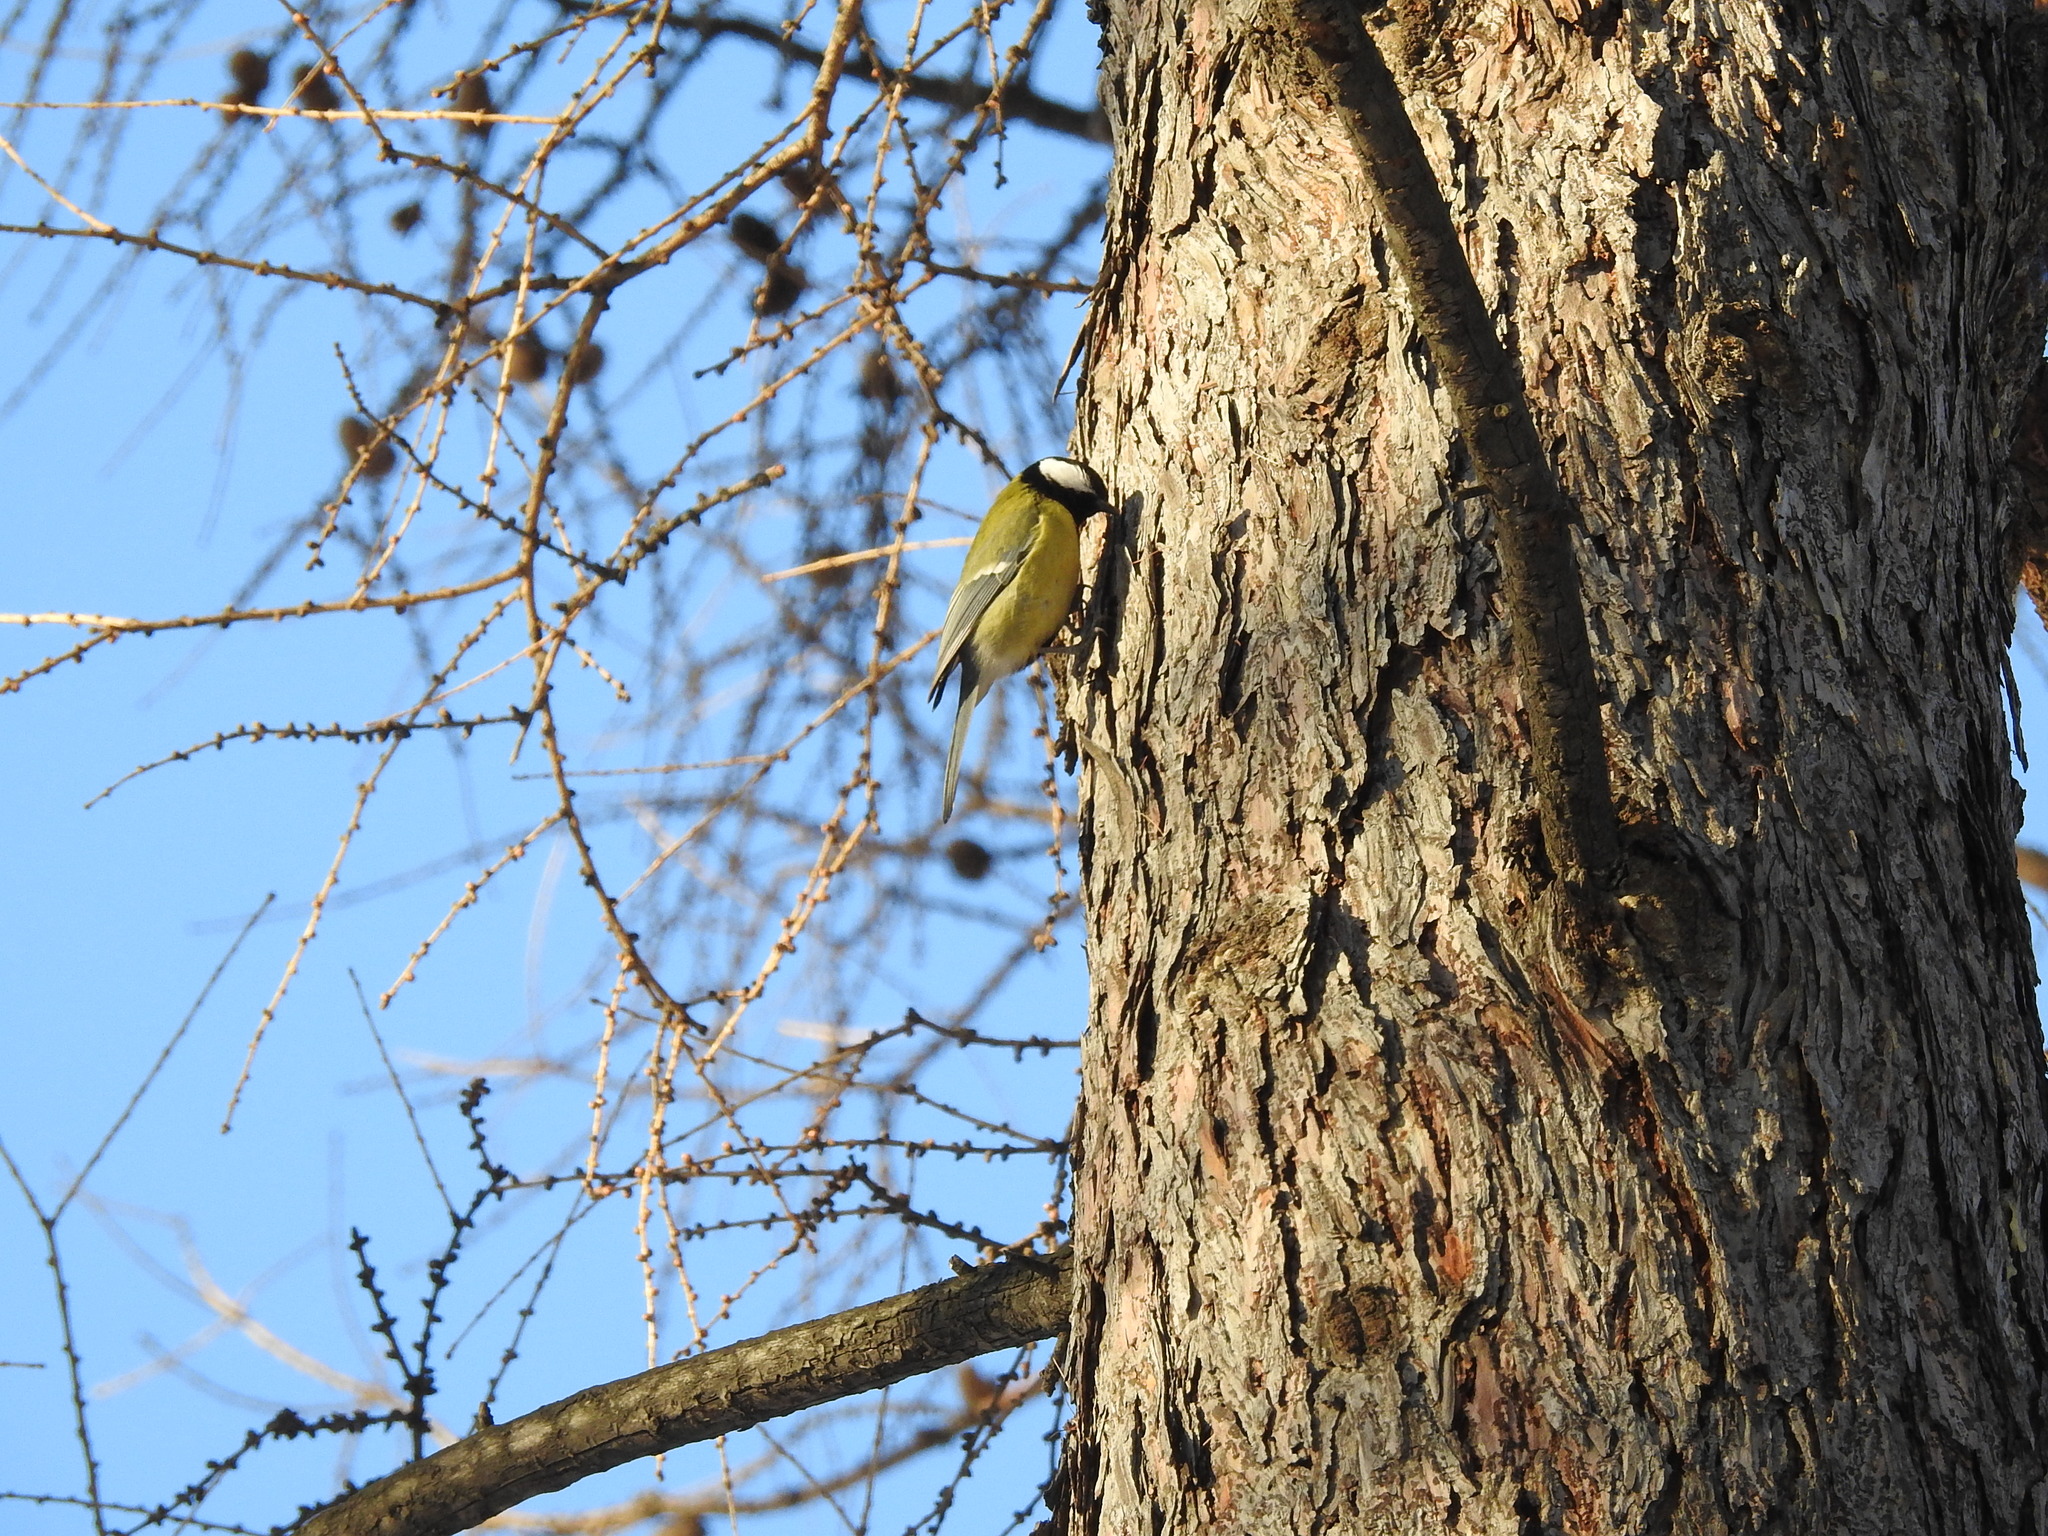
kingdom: Animalia
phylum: Chordata
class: Aves
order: Passeriformes
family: Paridae
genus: Parus
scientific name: Parus major
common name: Great tit
